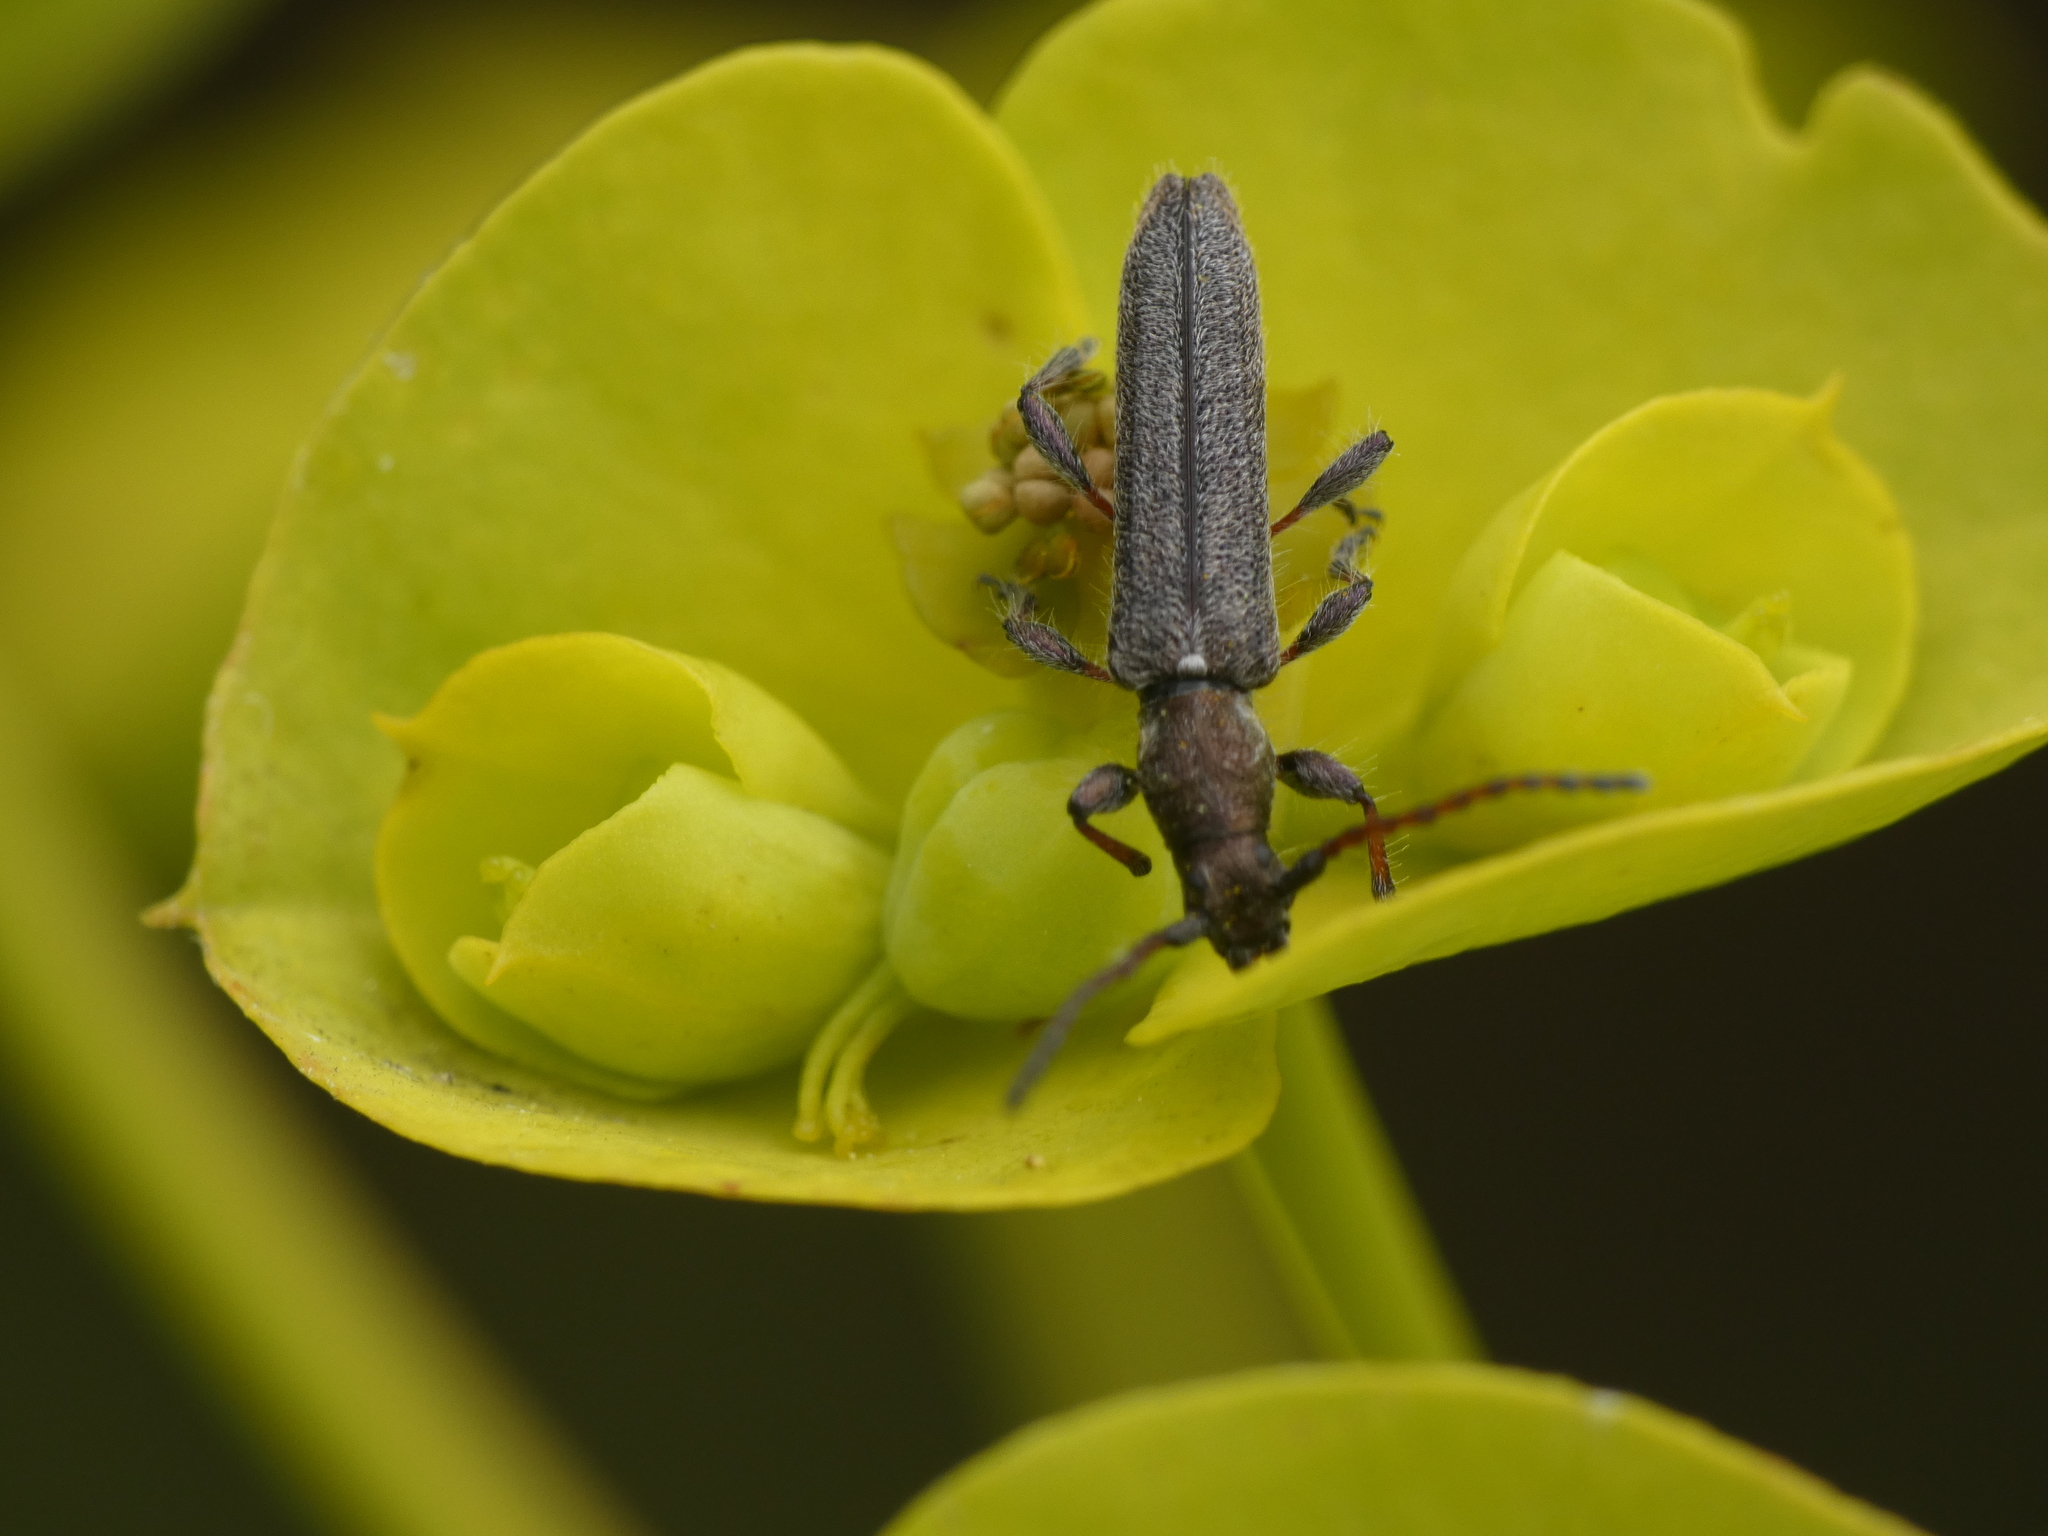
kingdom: Animalia
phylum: Arthropoda
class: Insecta
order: Coleoptera
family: Cerambycidae
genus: Deilus
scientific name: Deilus fugax
